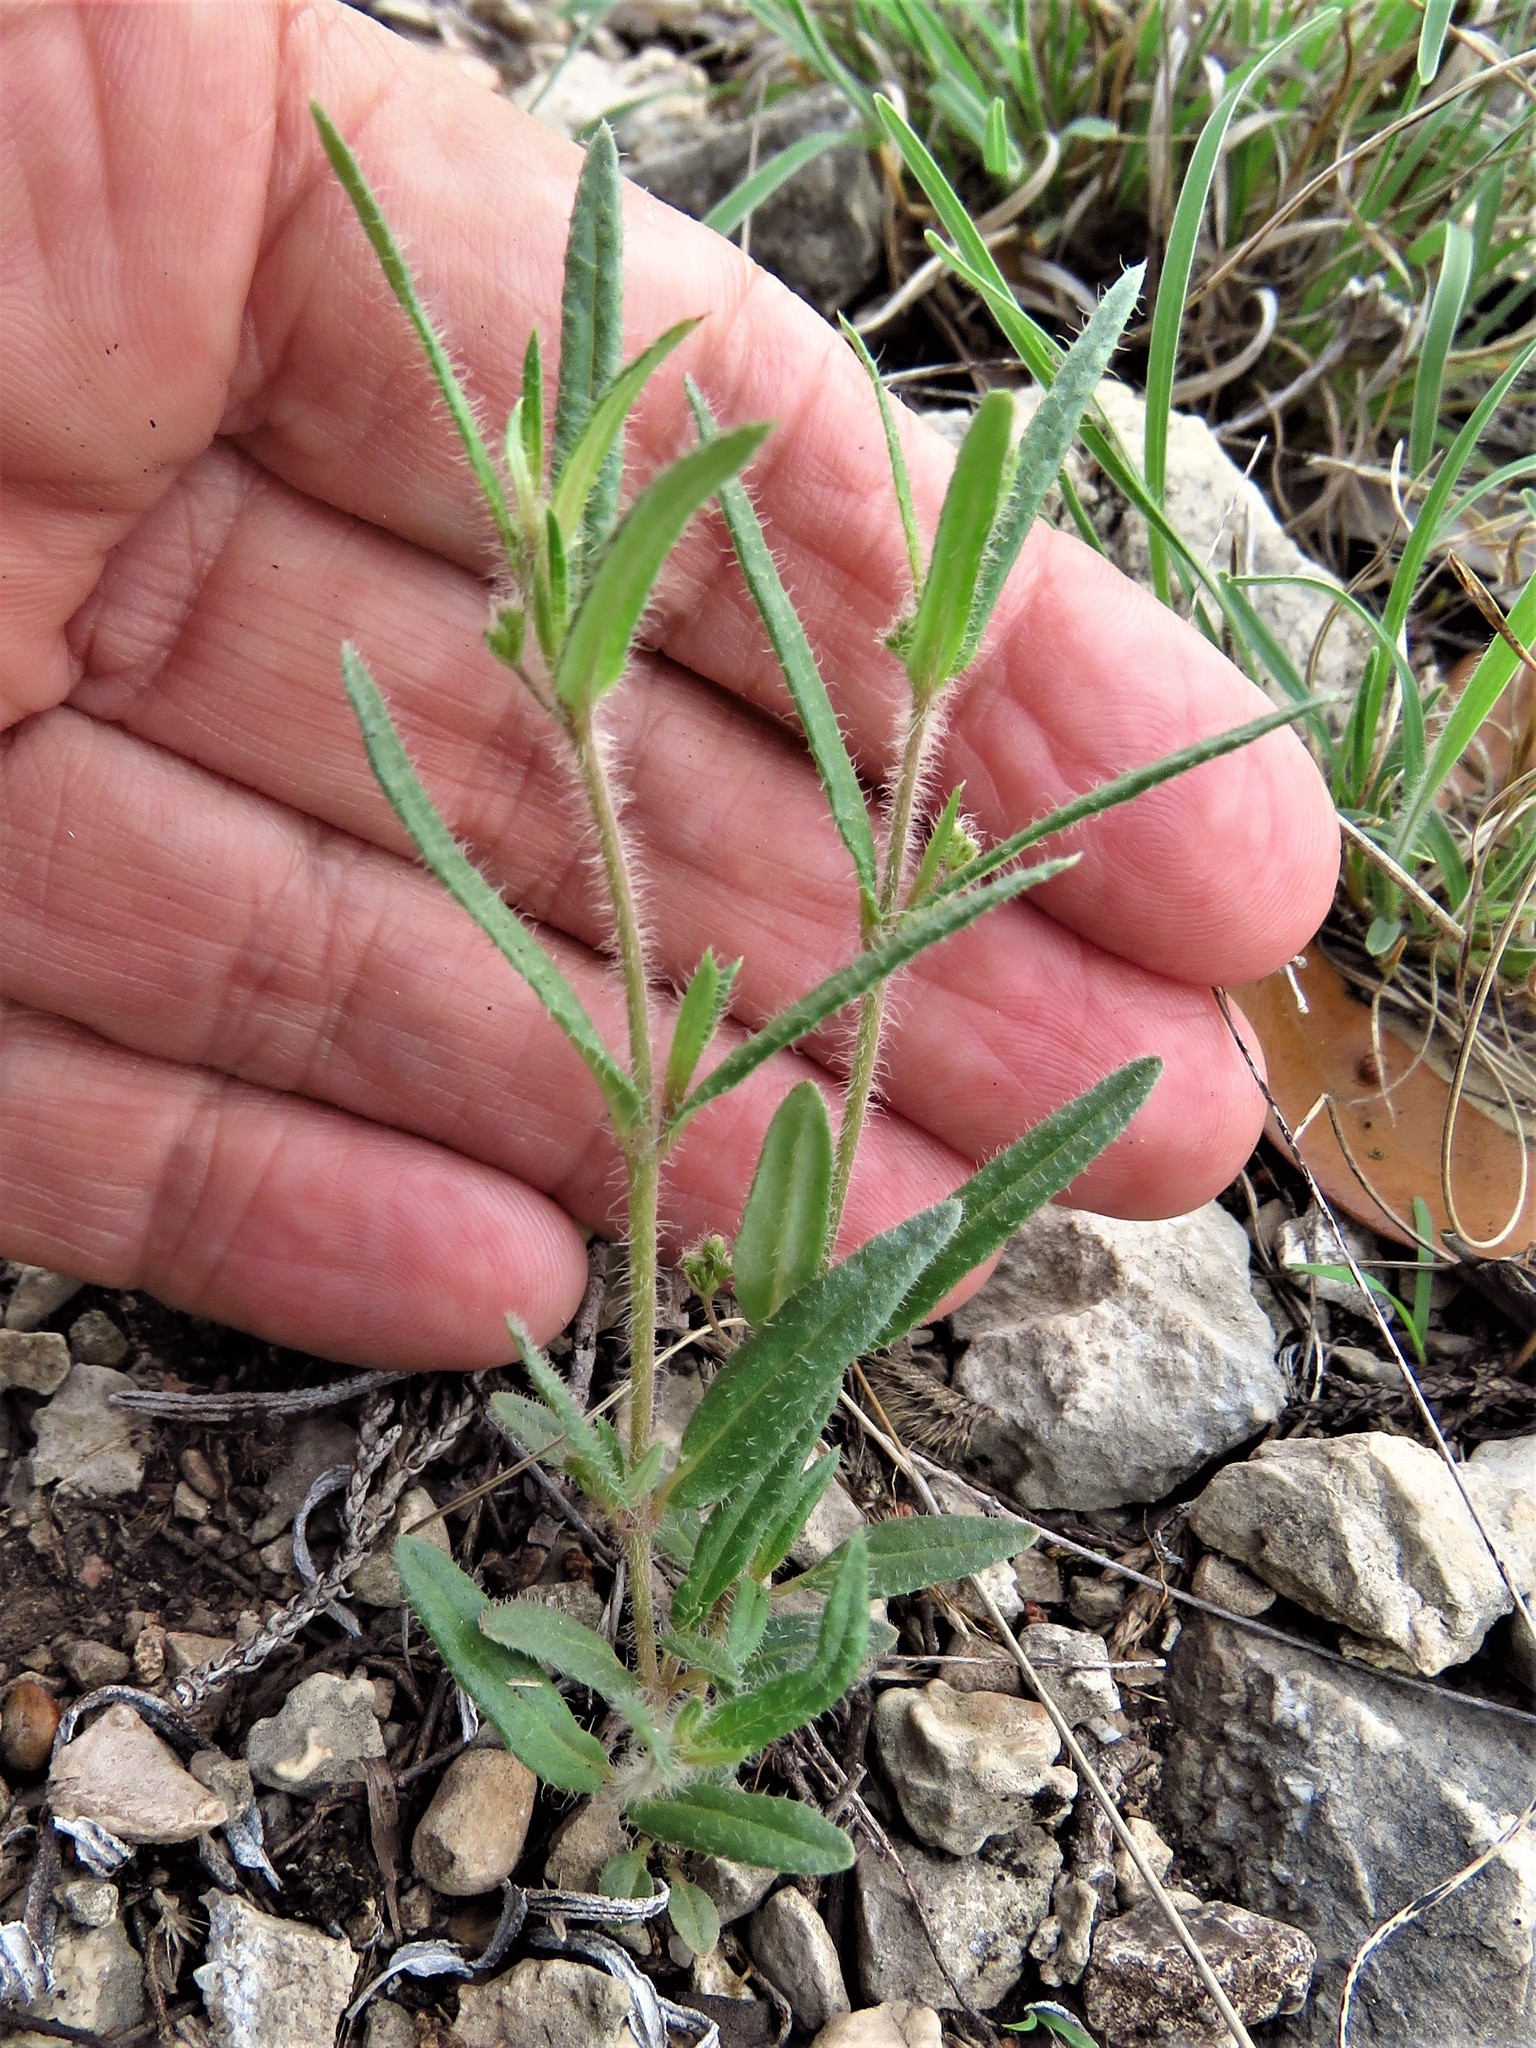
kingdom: Plantae
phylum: Tracheophyta
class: Magnoliopsida
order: Caryophyllales
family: Nyctaginaceae
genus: Boerhavia
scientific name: Boerhavia linearifolia
